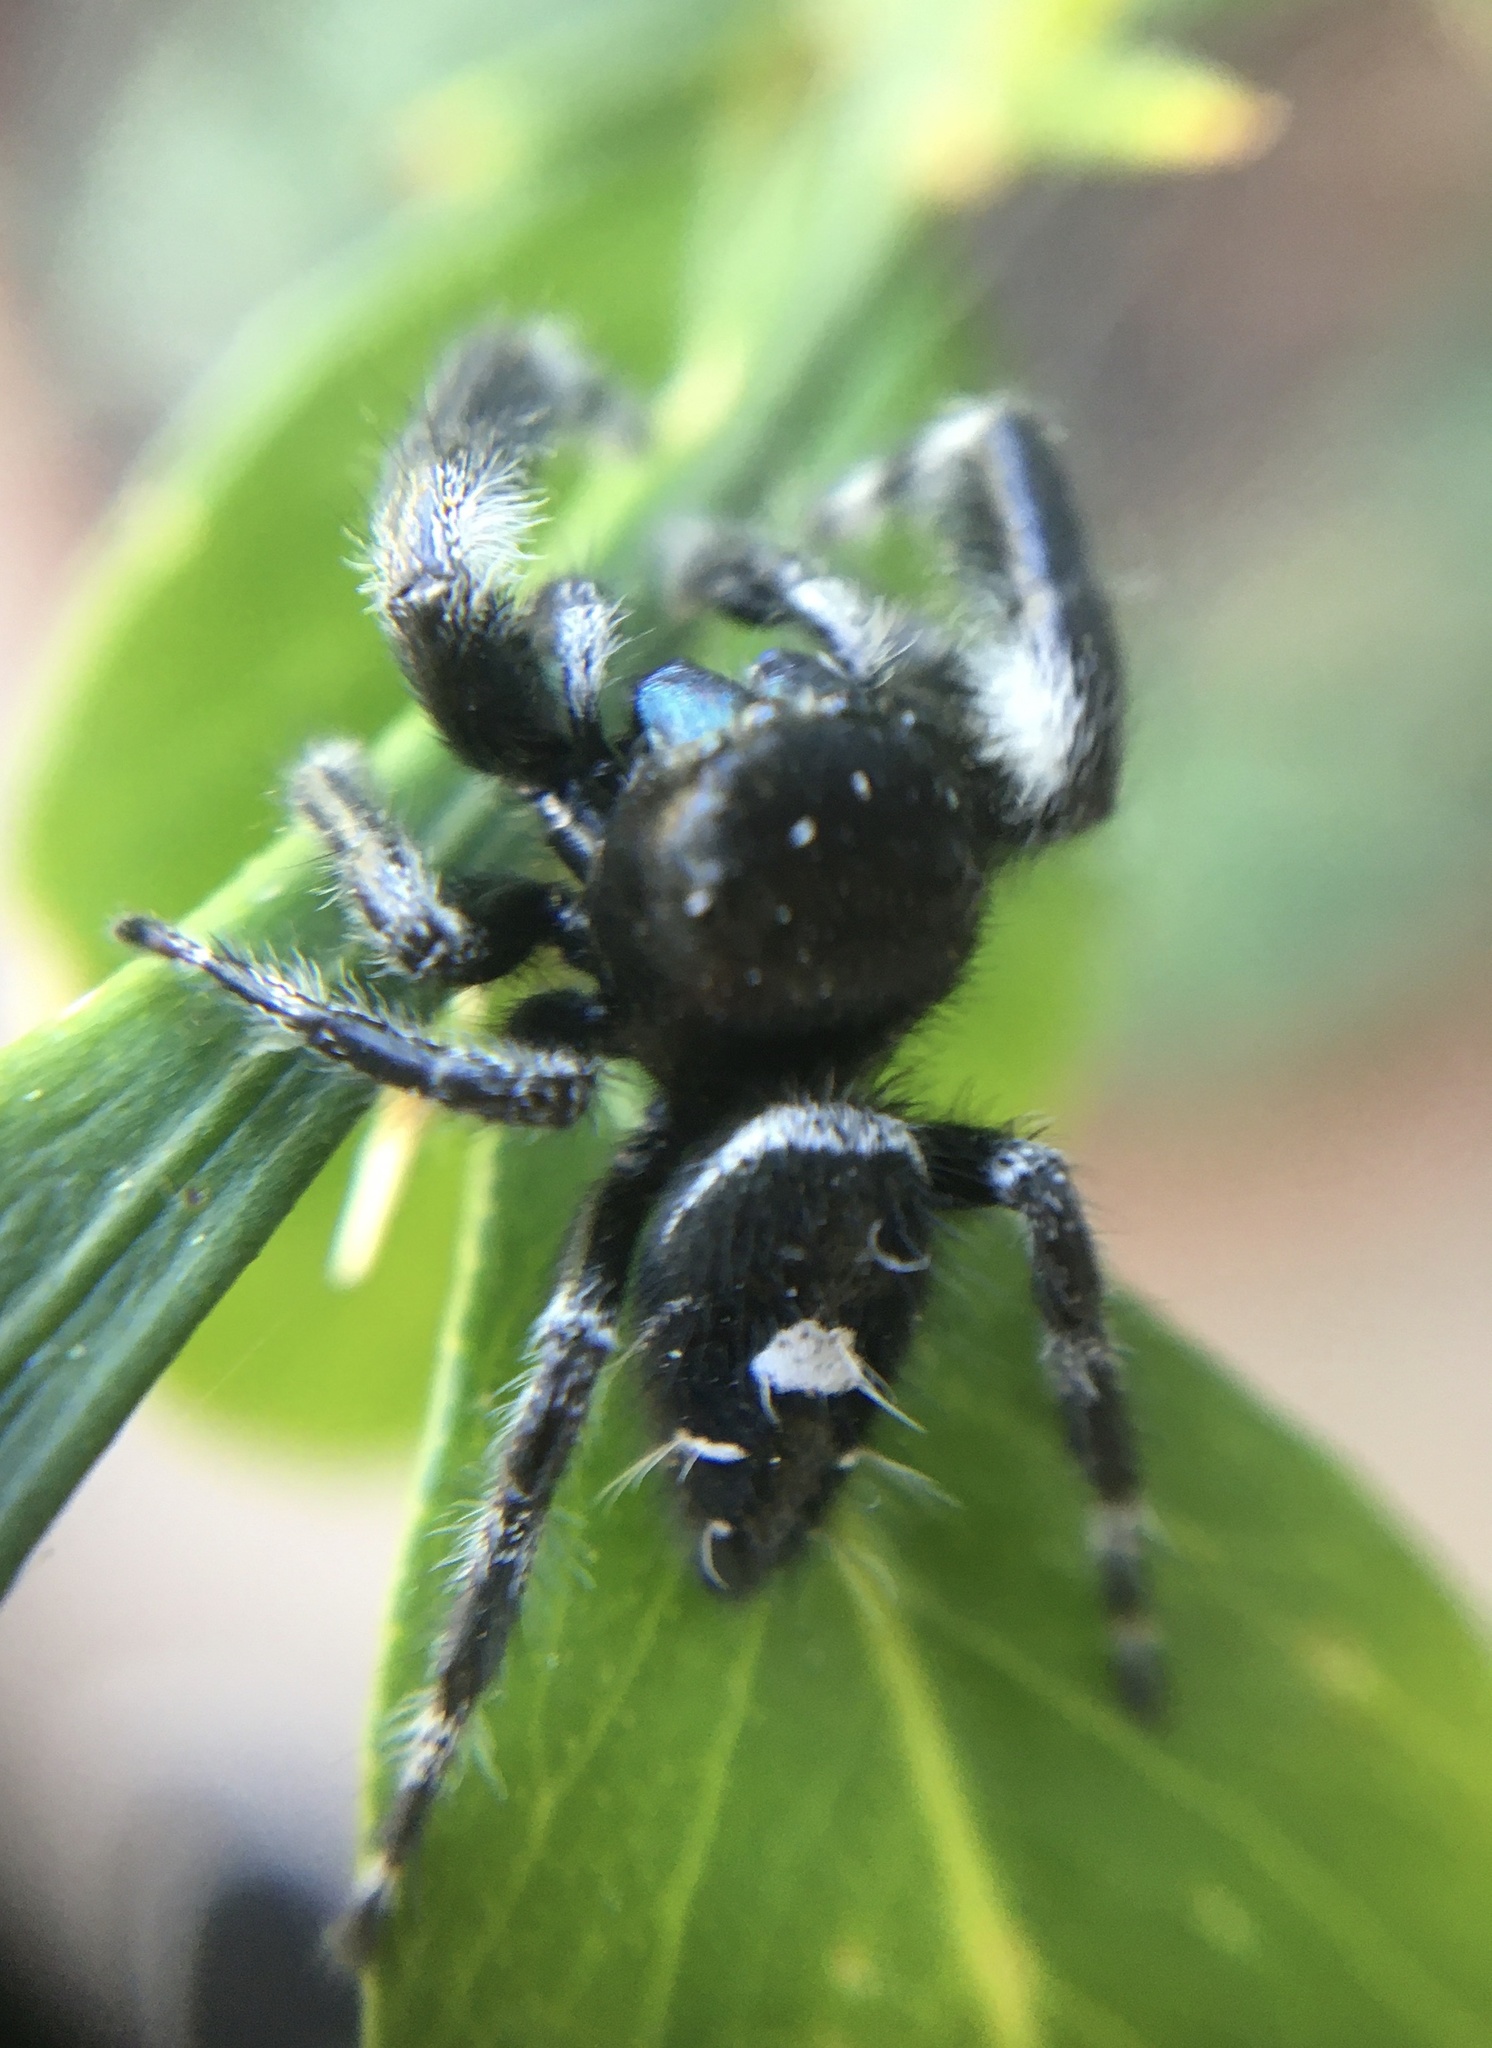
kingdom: Animalia
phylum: Arthropoda
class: Arachnida
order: Araneae
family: Salticidae
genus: Phidippus
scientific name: Phidippus audax
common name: Bold jumper
